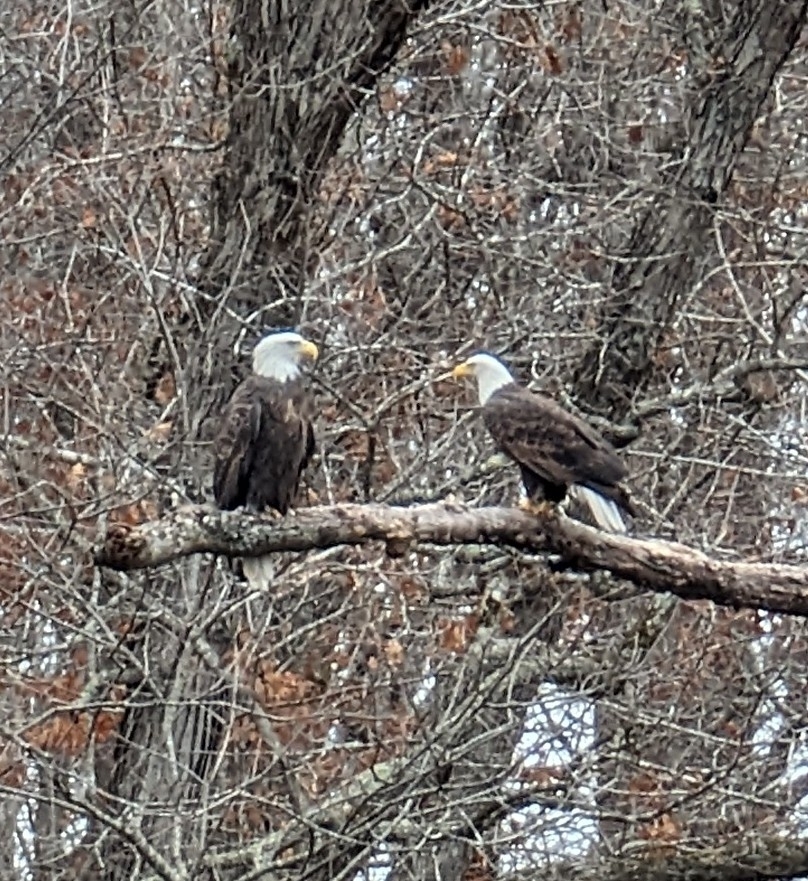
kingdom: Animalia
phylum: Chordata
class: Aves
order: Accipitriformes
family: Accipitridae
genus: Haliaeetus
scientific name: Haliaeetus leucocephalus
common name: Bald eagle
